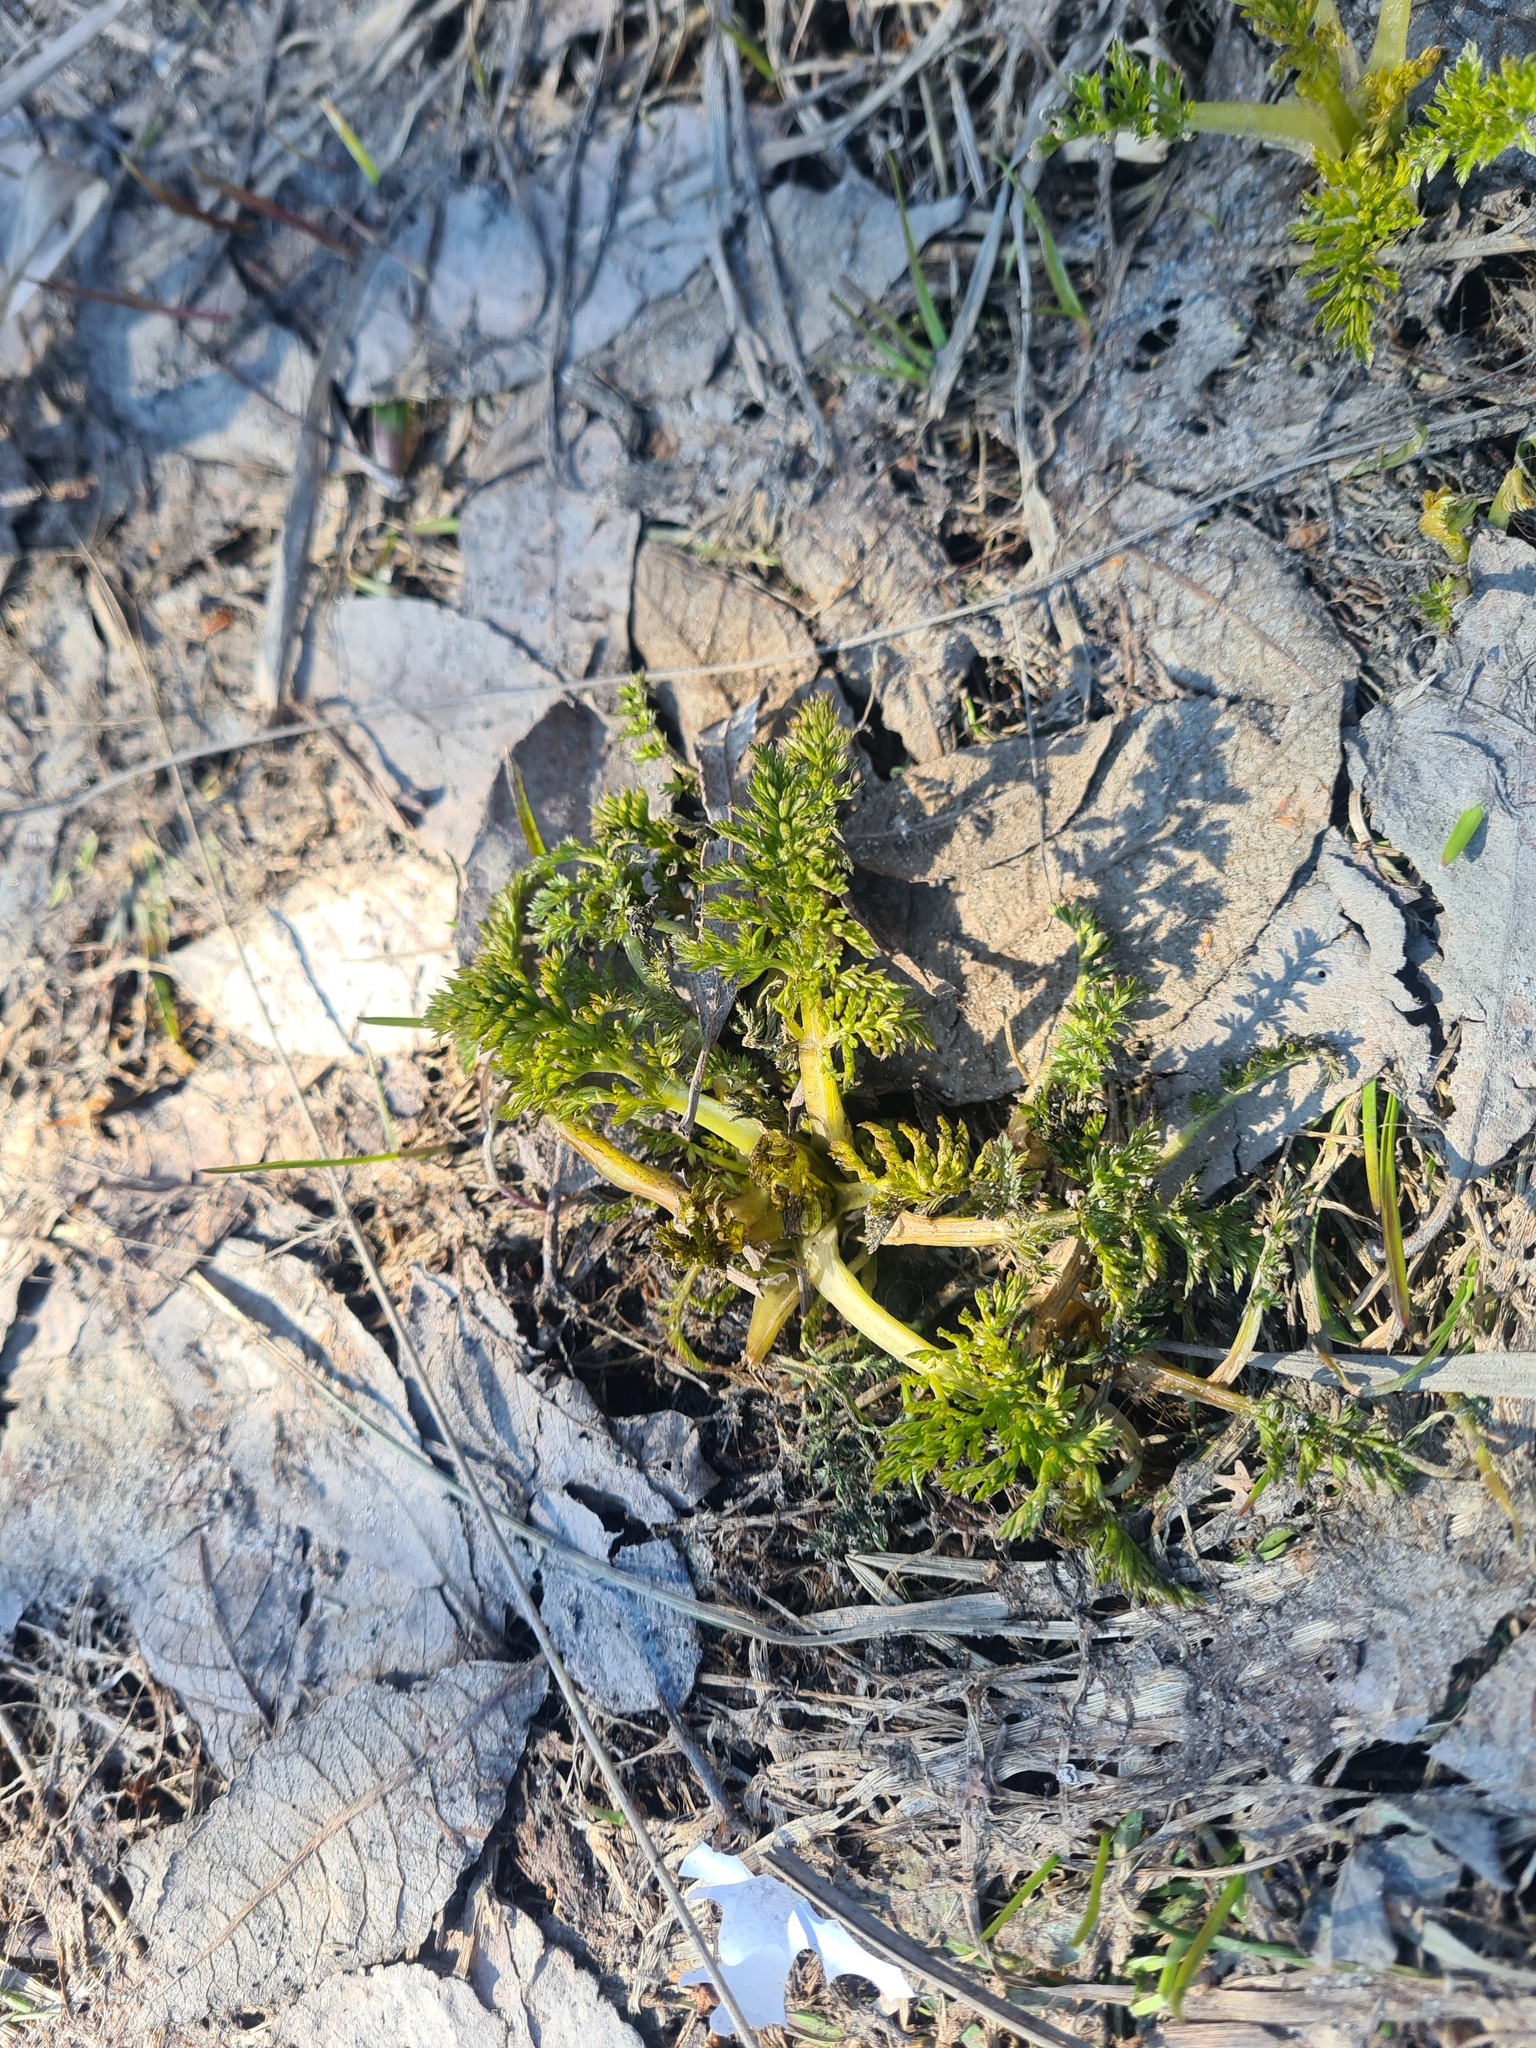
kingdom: Plantae
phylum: Tracheophyta
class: Magnoliopsida
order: Apiales
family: Apiaceae
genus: Carum
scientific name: Carum carvi
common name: Caraway
